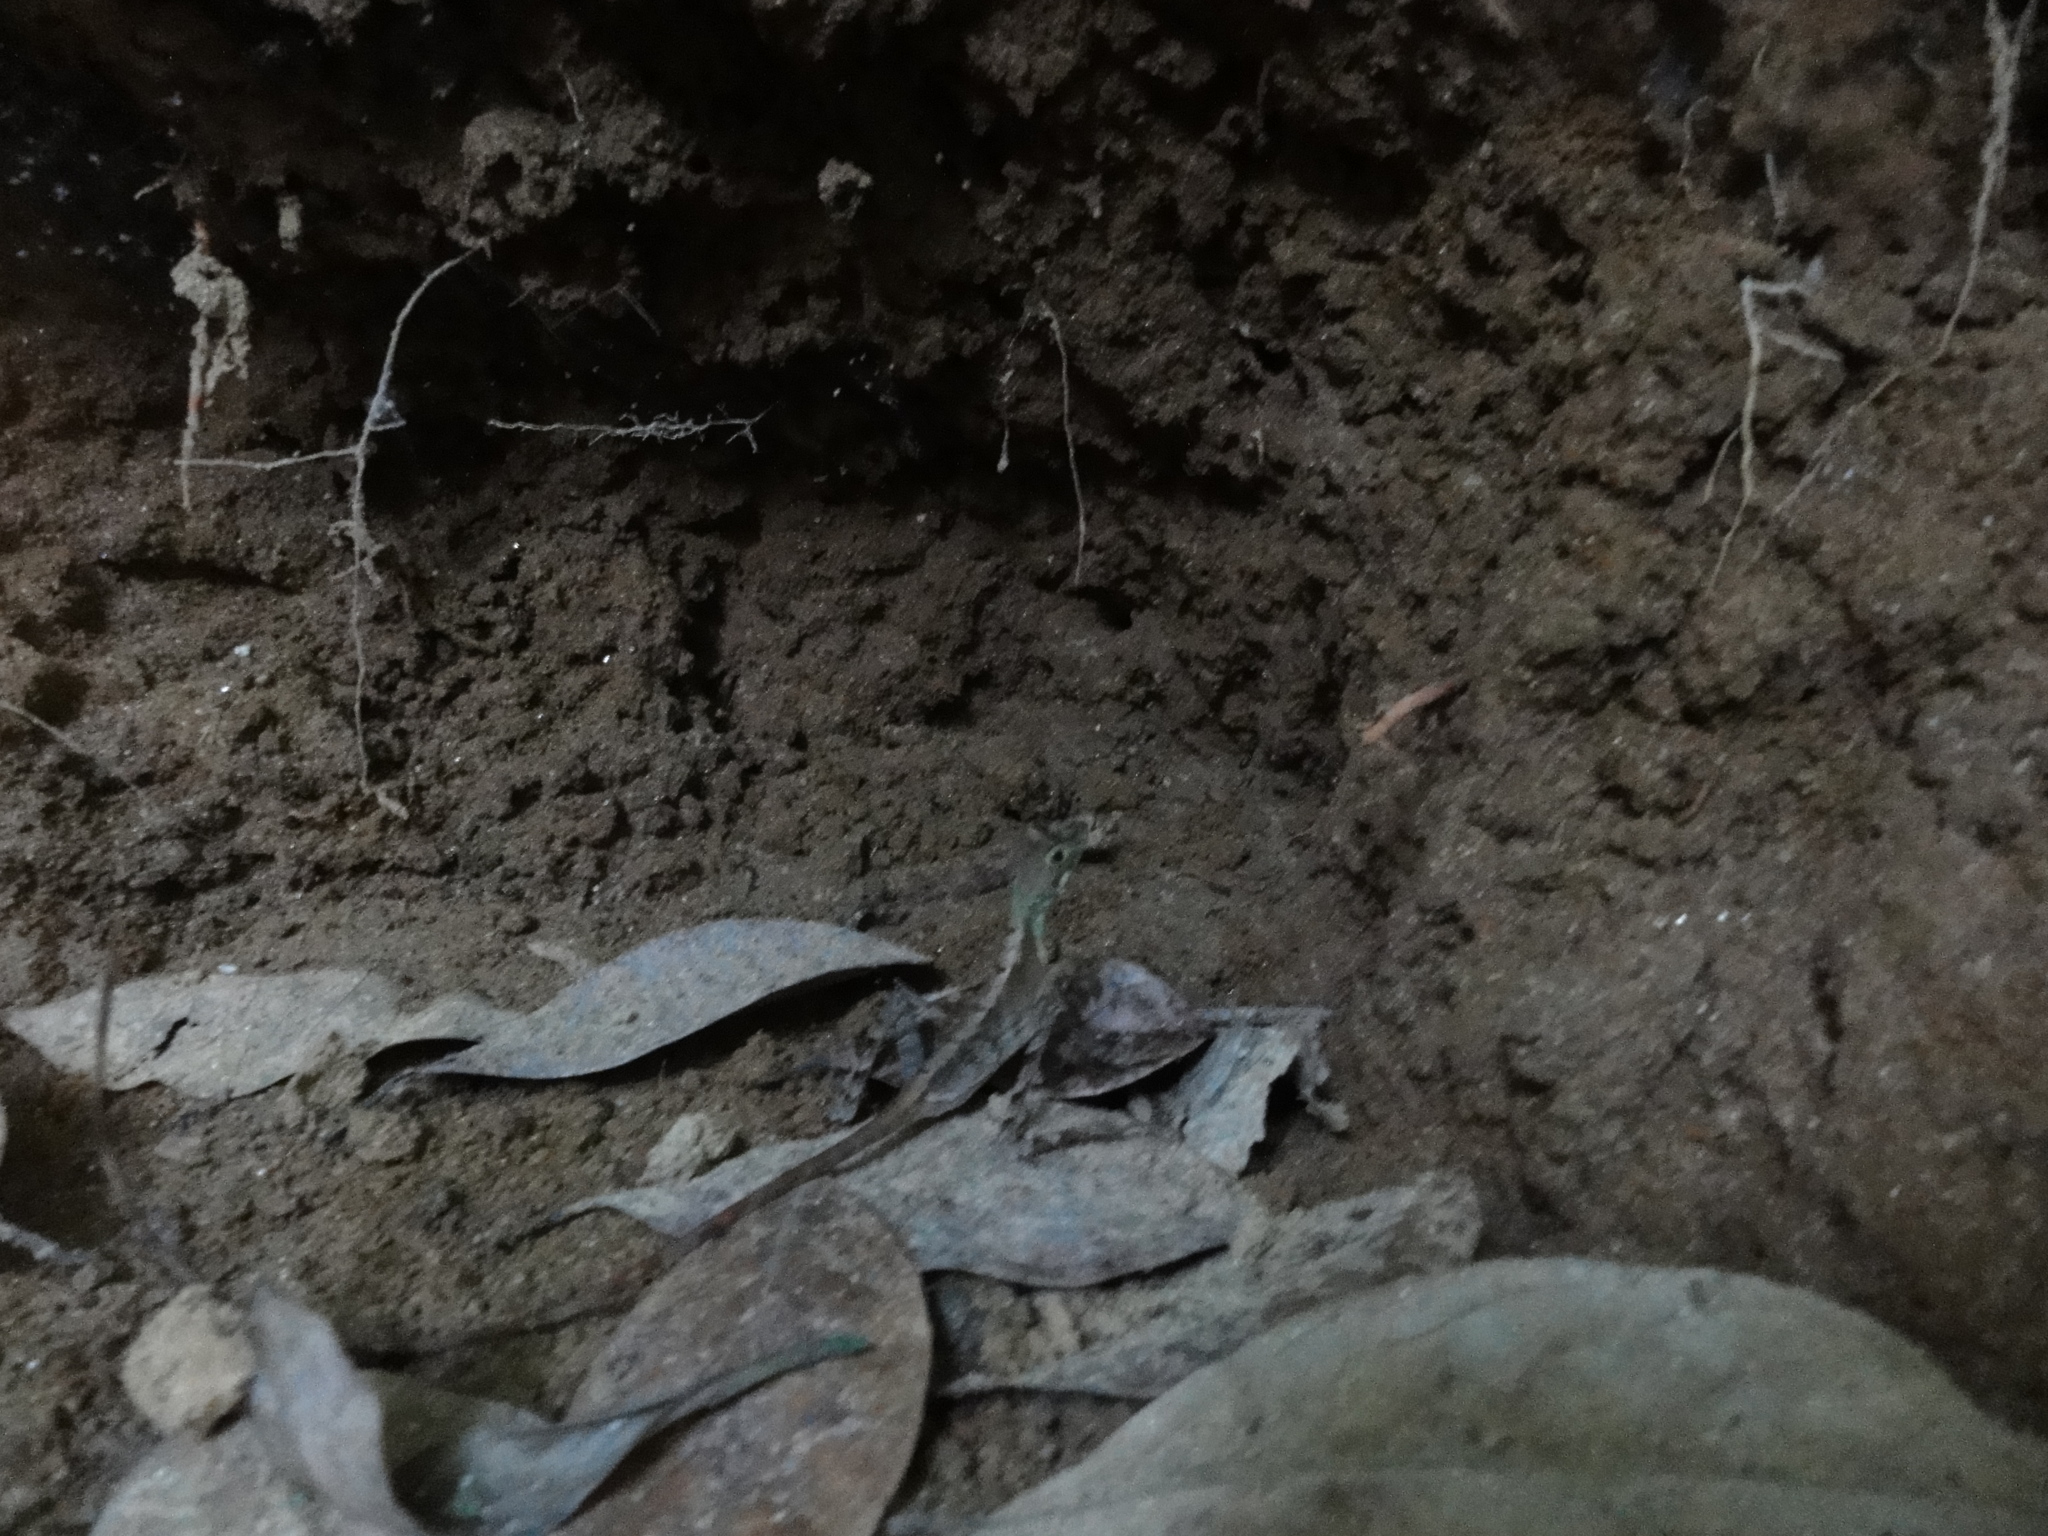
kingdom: Animalia
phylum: Chordata
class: Squamata
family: Agamidae
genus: Otocryptis
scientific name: Otocryptis wiegmanni
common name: Wiegmann's agama
